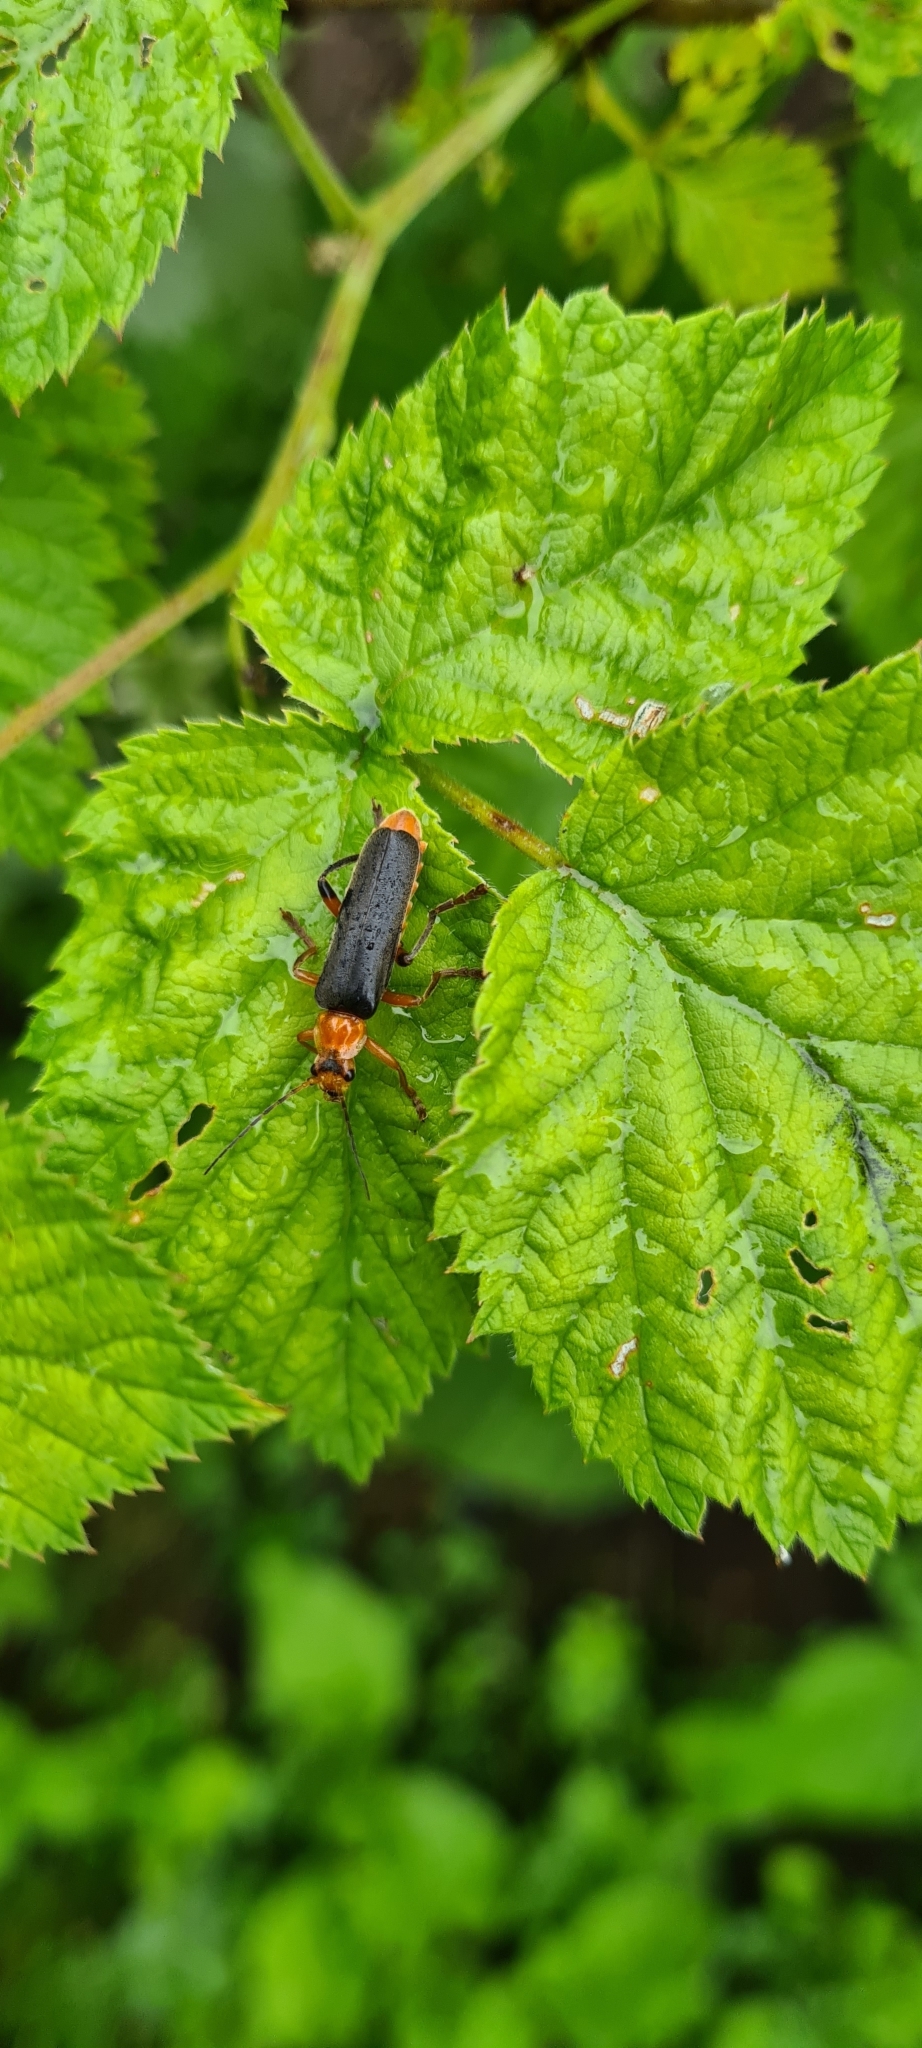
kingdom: Animalia
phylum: Arthropoda
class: Insecta
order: Coleoptera
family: Cantharidae
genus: Cantharis
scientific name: Cantharis livida
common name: Livid soldier beetle
